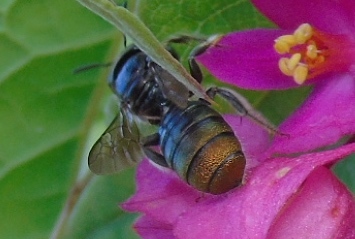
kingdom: Animalia
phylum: Arthropoda
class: Insecta
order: Hymenoptera
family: Apidae
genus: Ceratina
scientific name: Ceratina
